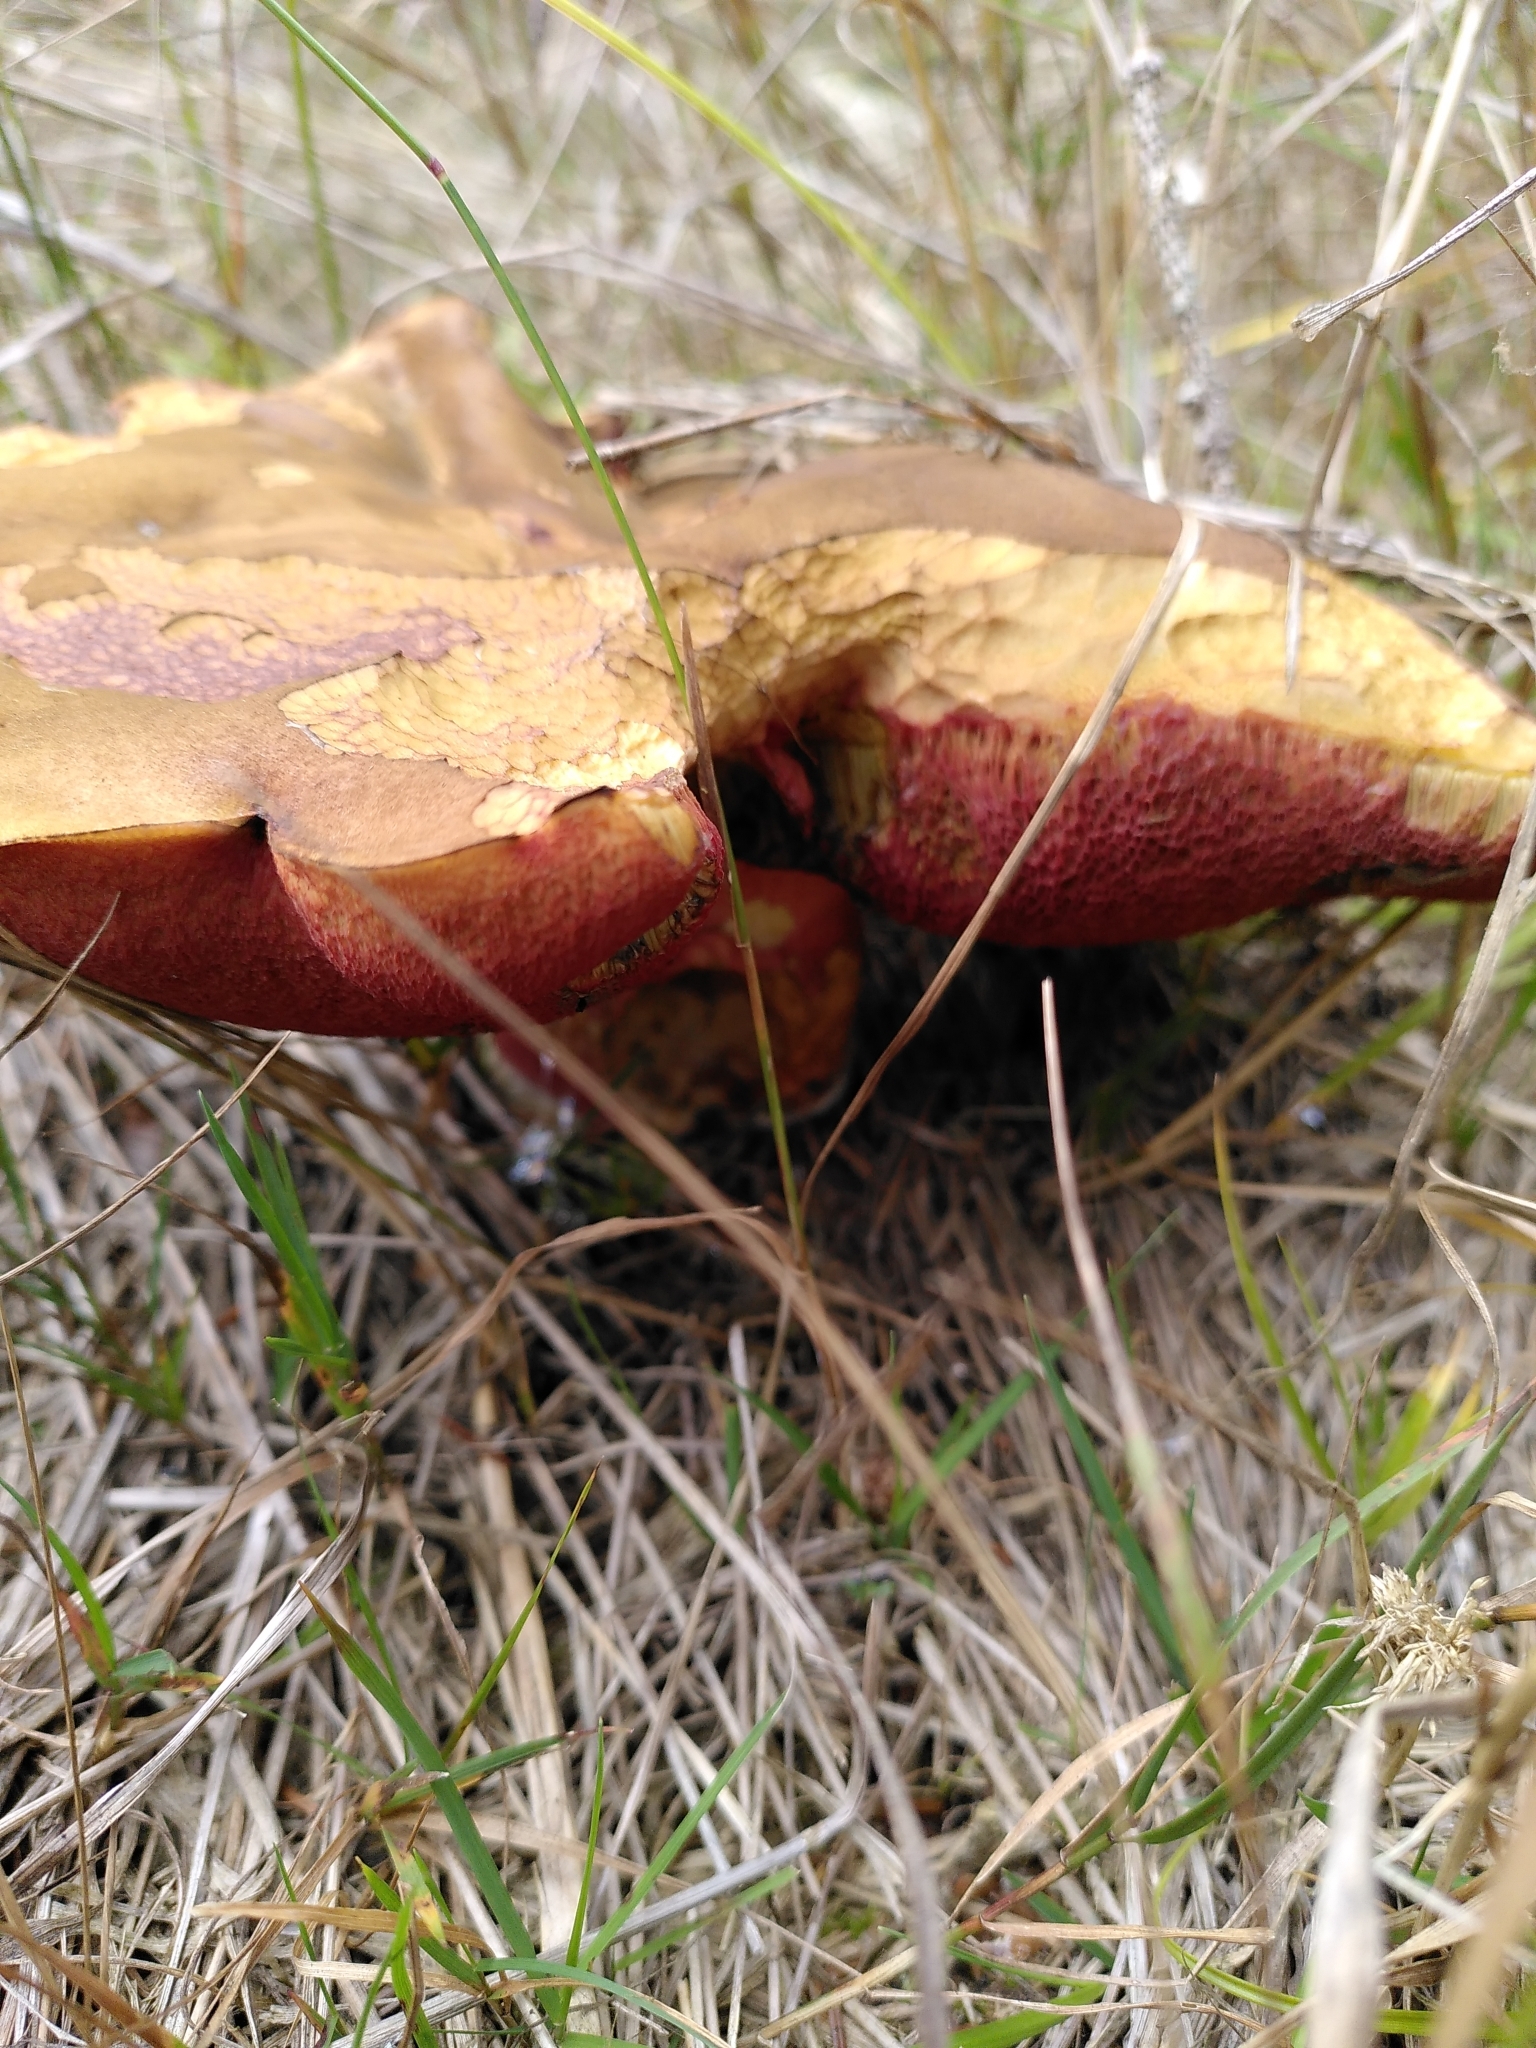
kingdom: Fungi
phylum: Basidiomycota
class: Agaricomycetes
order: Boletales
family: Boletaceae
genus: Neoboletus
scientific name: Neoboletus luridiformis
